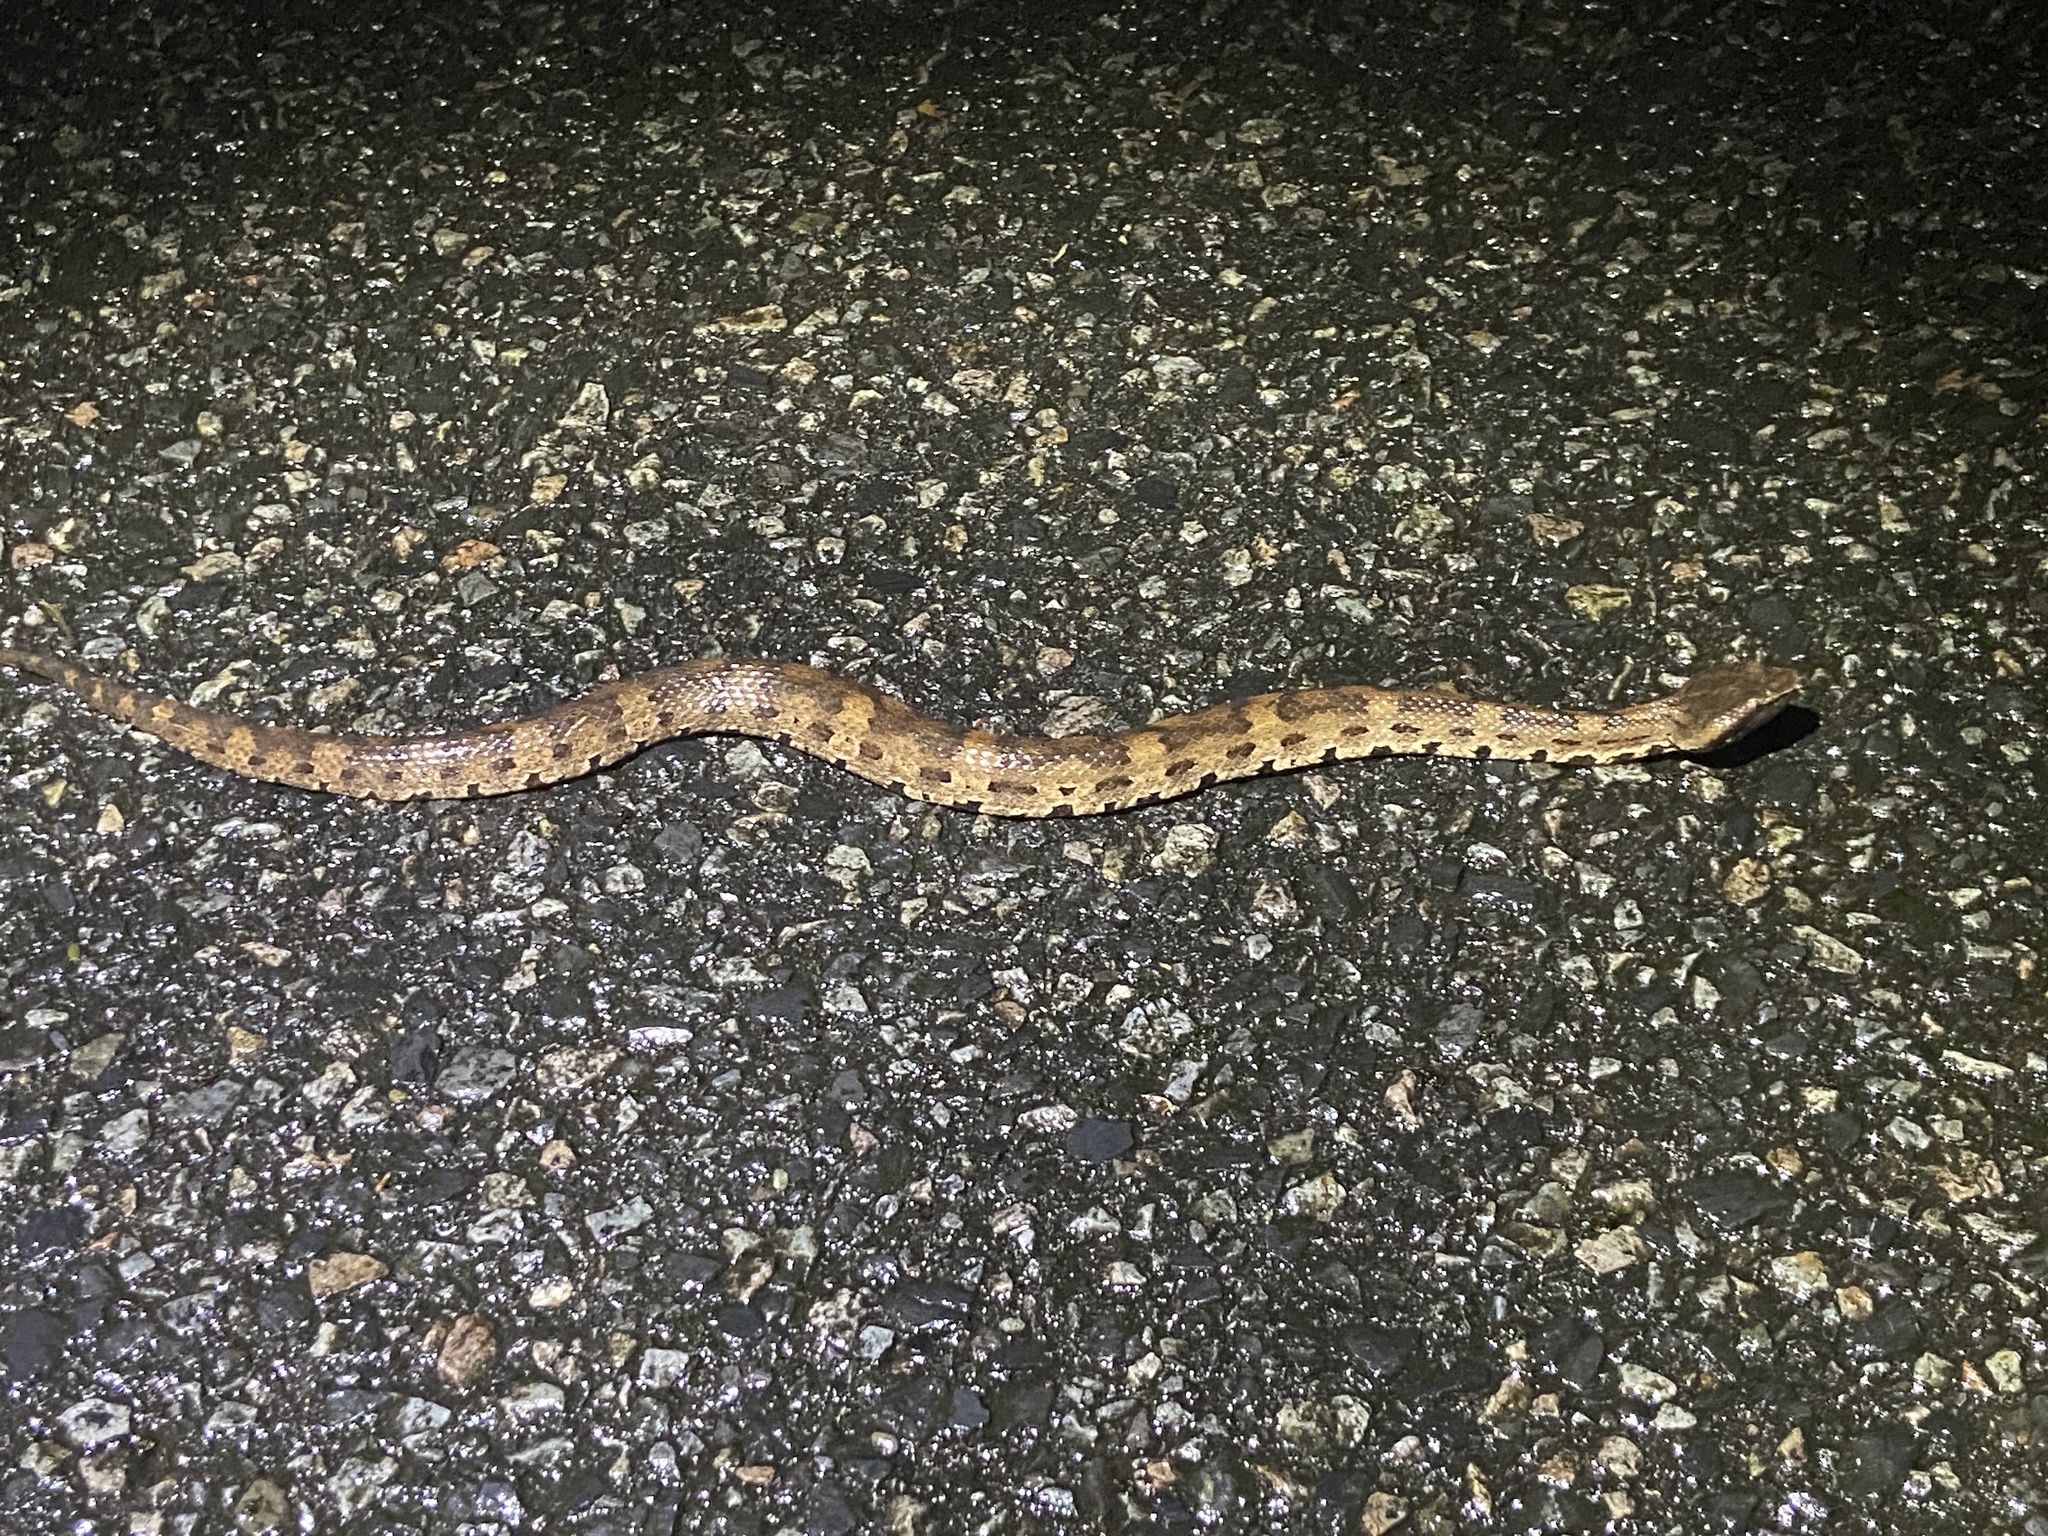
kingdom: Animalia
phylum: Chordata
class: Squamata
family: Viperidae
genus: Ovophis
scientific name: Ovophis okinavensis
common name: Okinawa pitviper
